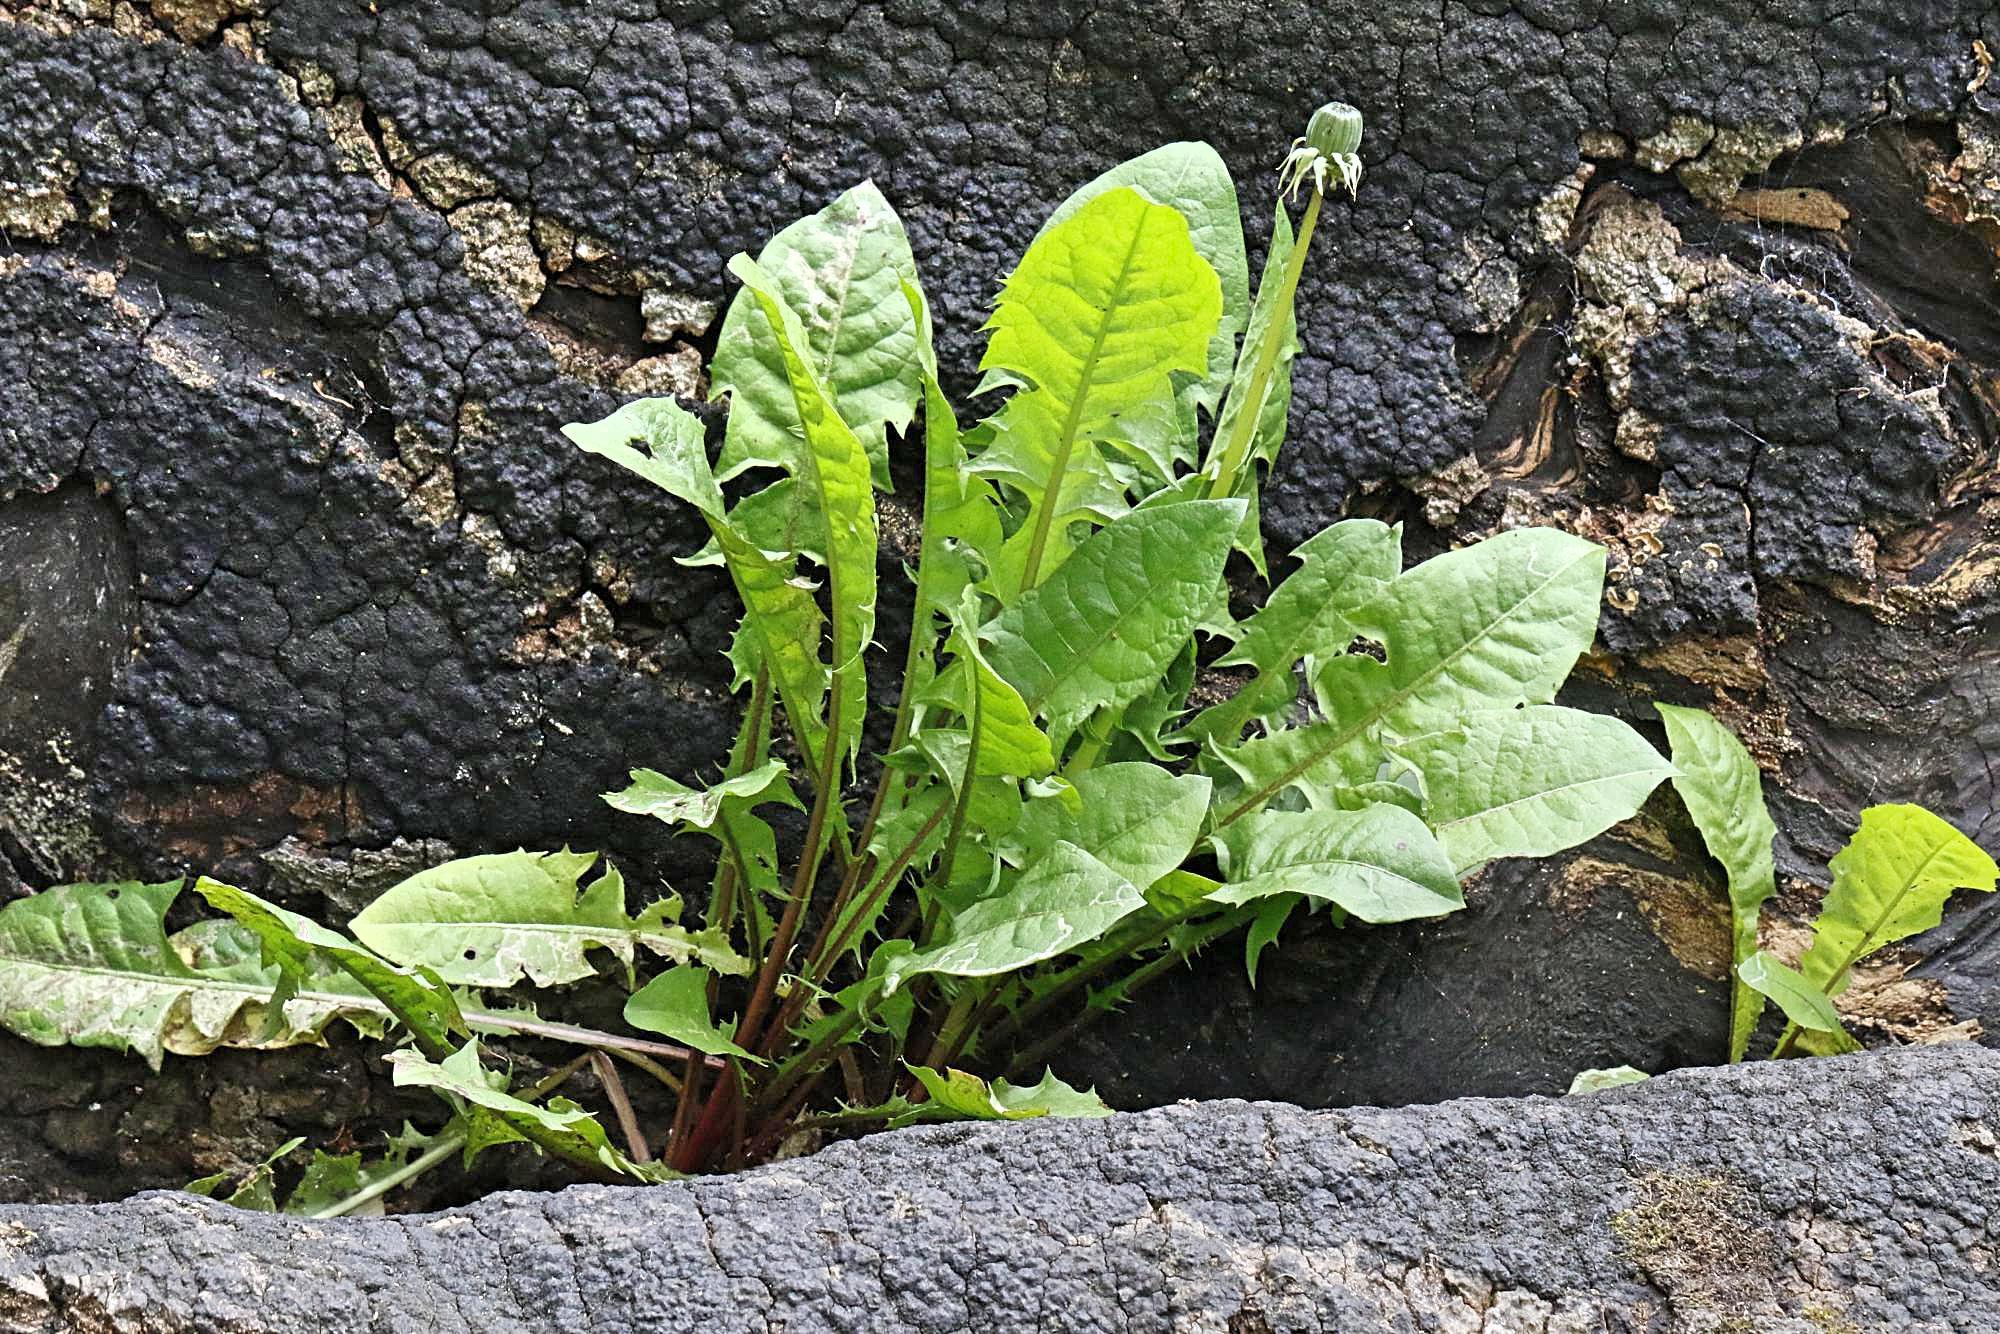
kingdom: Plantae
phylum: Tracheophyta
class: Magnoliopsida
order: Asterales
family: Asteraceae
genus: Taraxacum
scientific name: Taraxacum officinale
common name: Common dandelion
